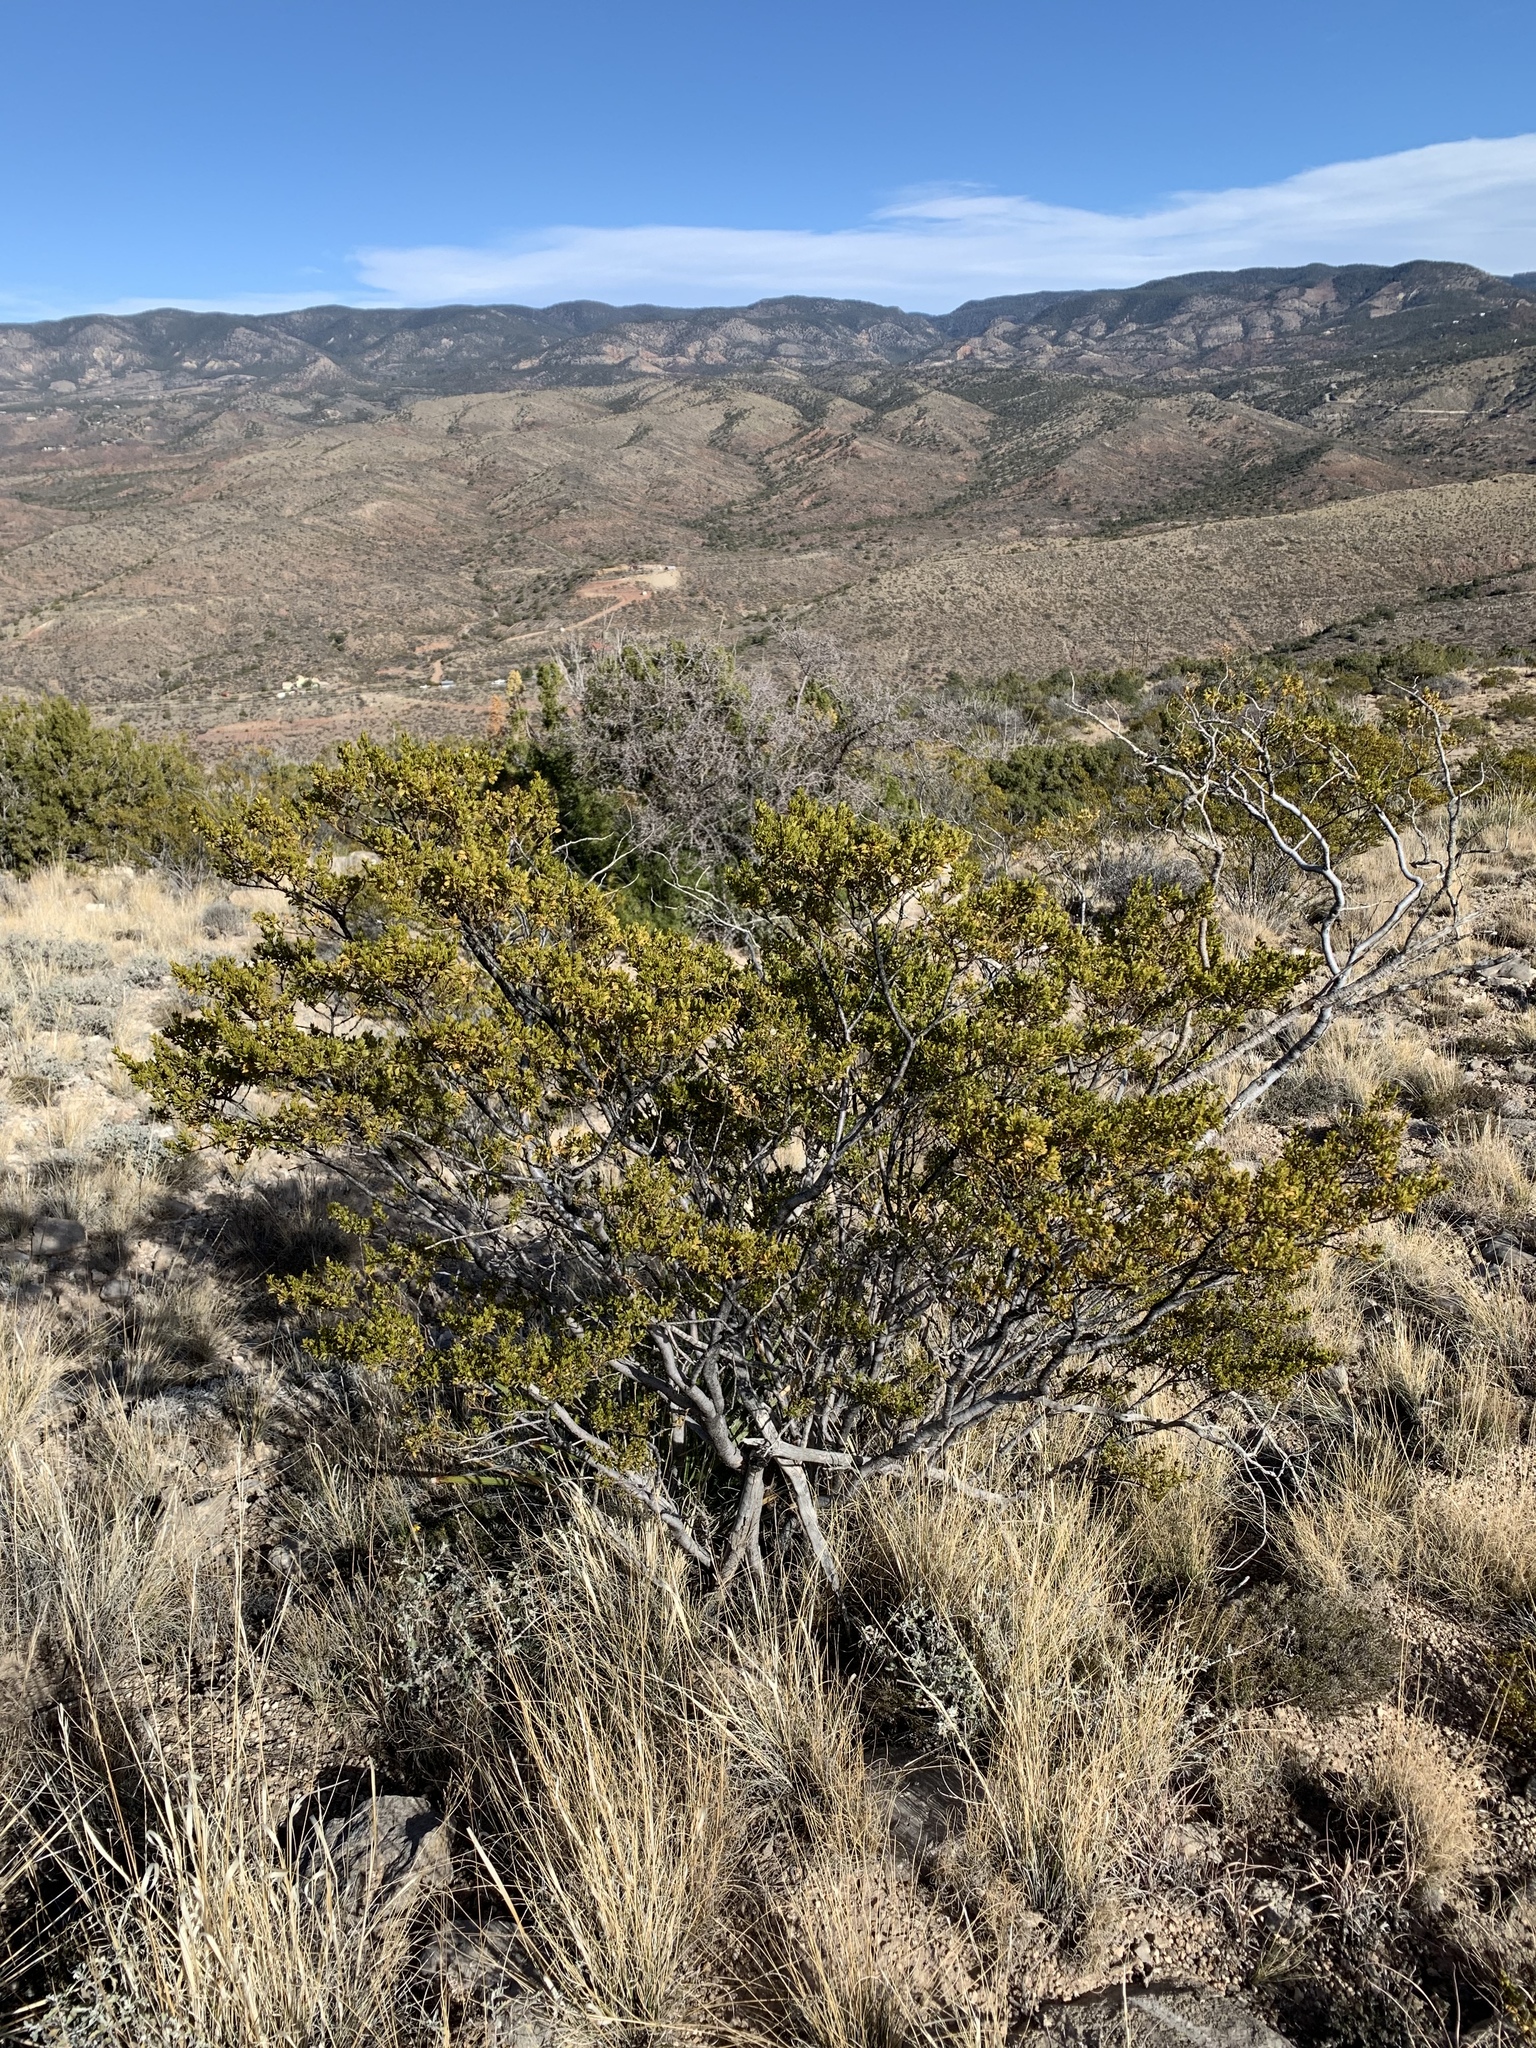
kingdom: Plantae
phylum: Tracheophyta
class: Magnoliopsida
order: Zygophyllales
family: Zygophyllaceae
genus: Larrea
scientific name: Larrea tridentata
